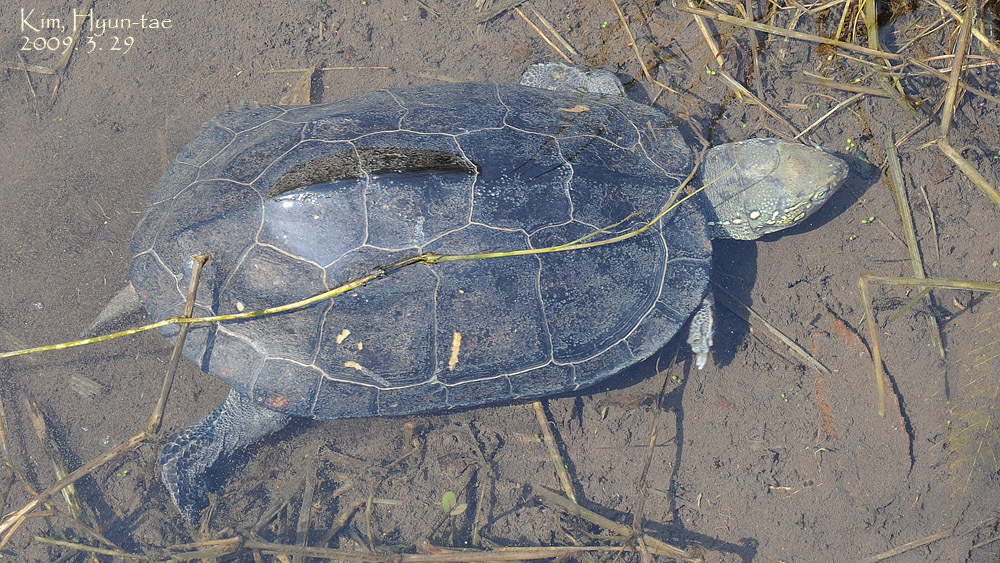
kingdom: Animalia
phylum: Chordata
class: Testudines
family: Geoemydidae
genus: Mauremys
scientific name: Mauremys reevesii
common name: Chinese pond turtle
